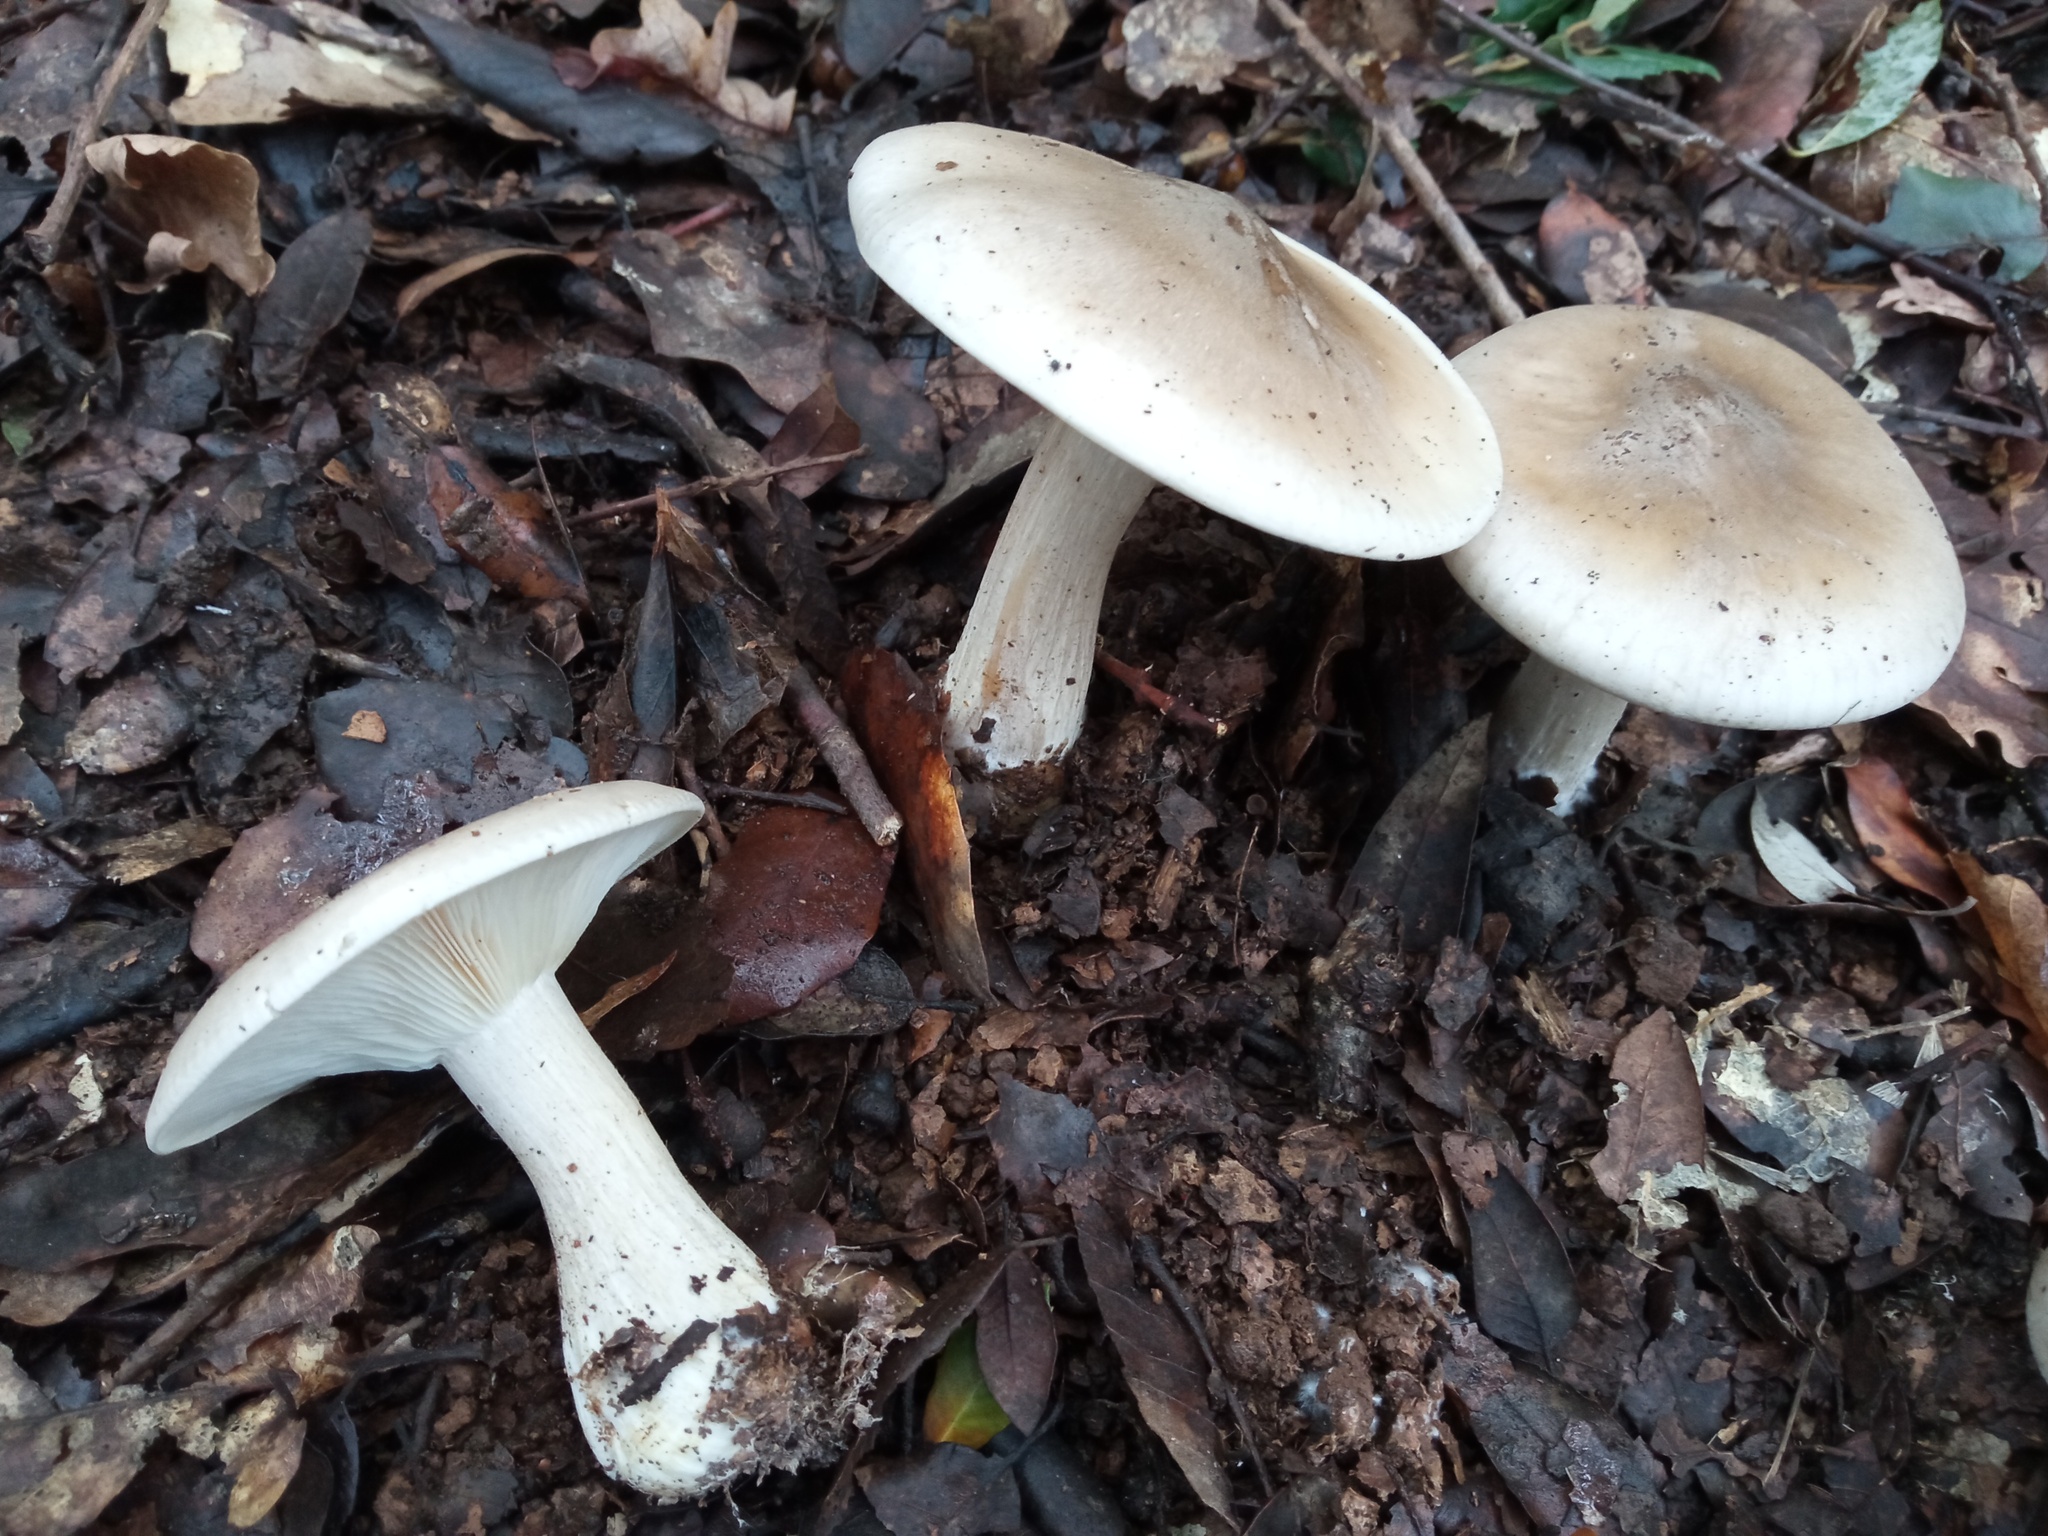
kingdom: Fungi
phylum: Basidiomycota
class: Agaricomycetes
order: Agaricales
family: Tricholomataceae
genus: Clitocybe
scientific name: Clitocybe nebularis
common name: Clouded agaric
